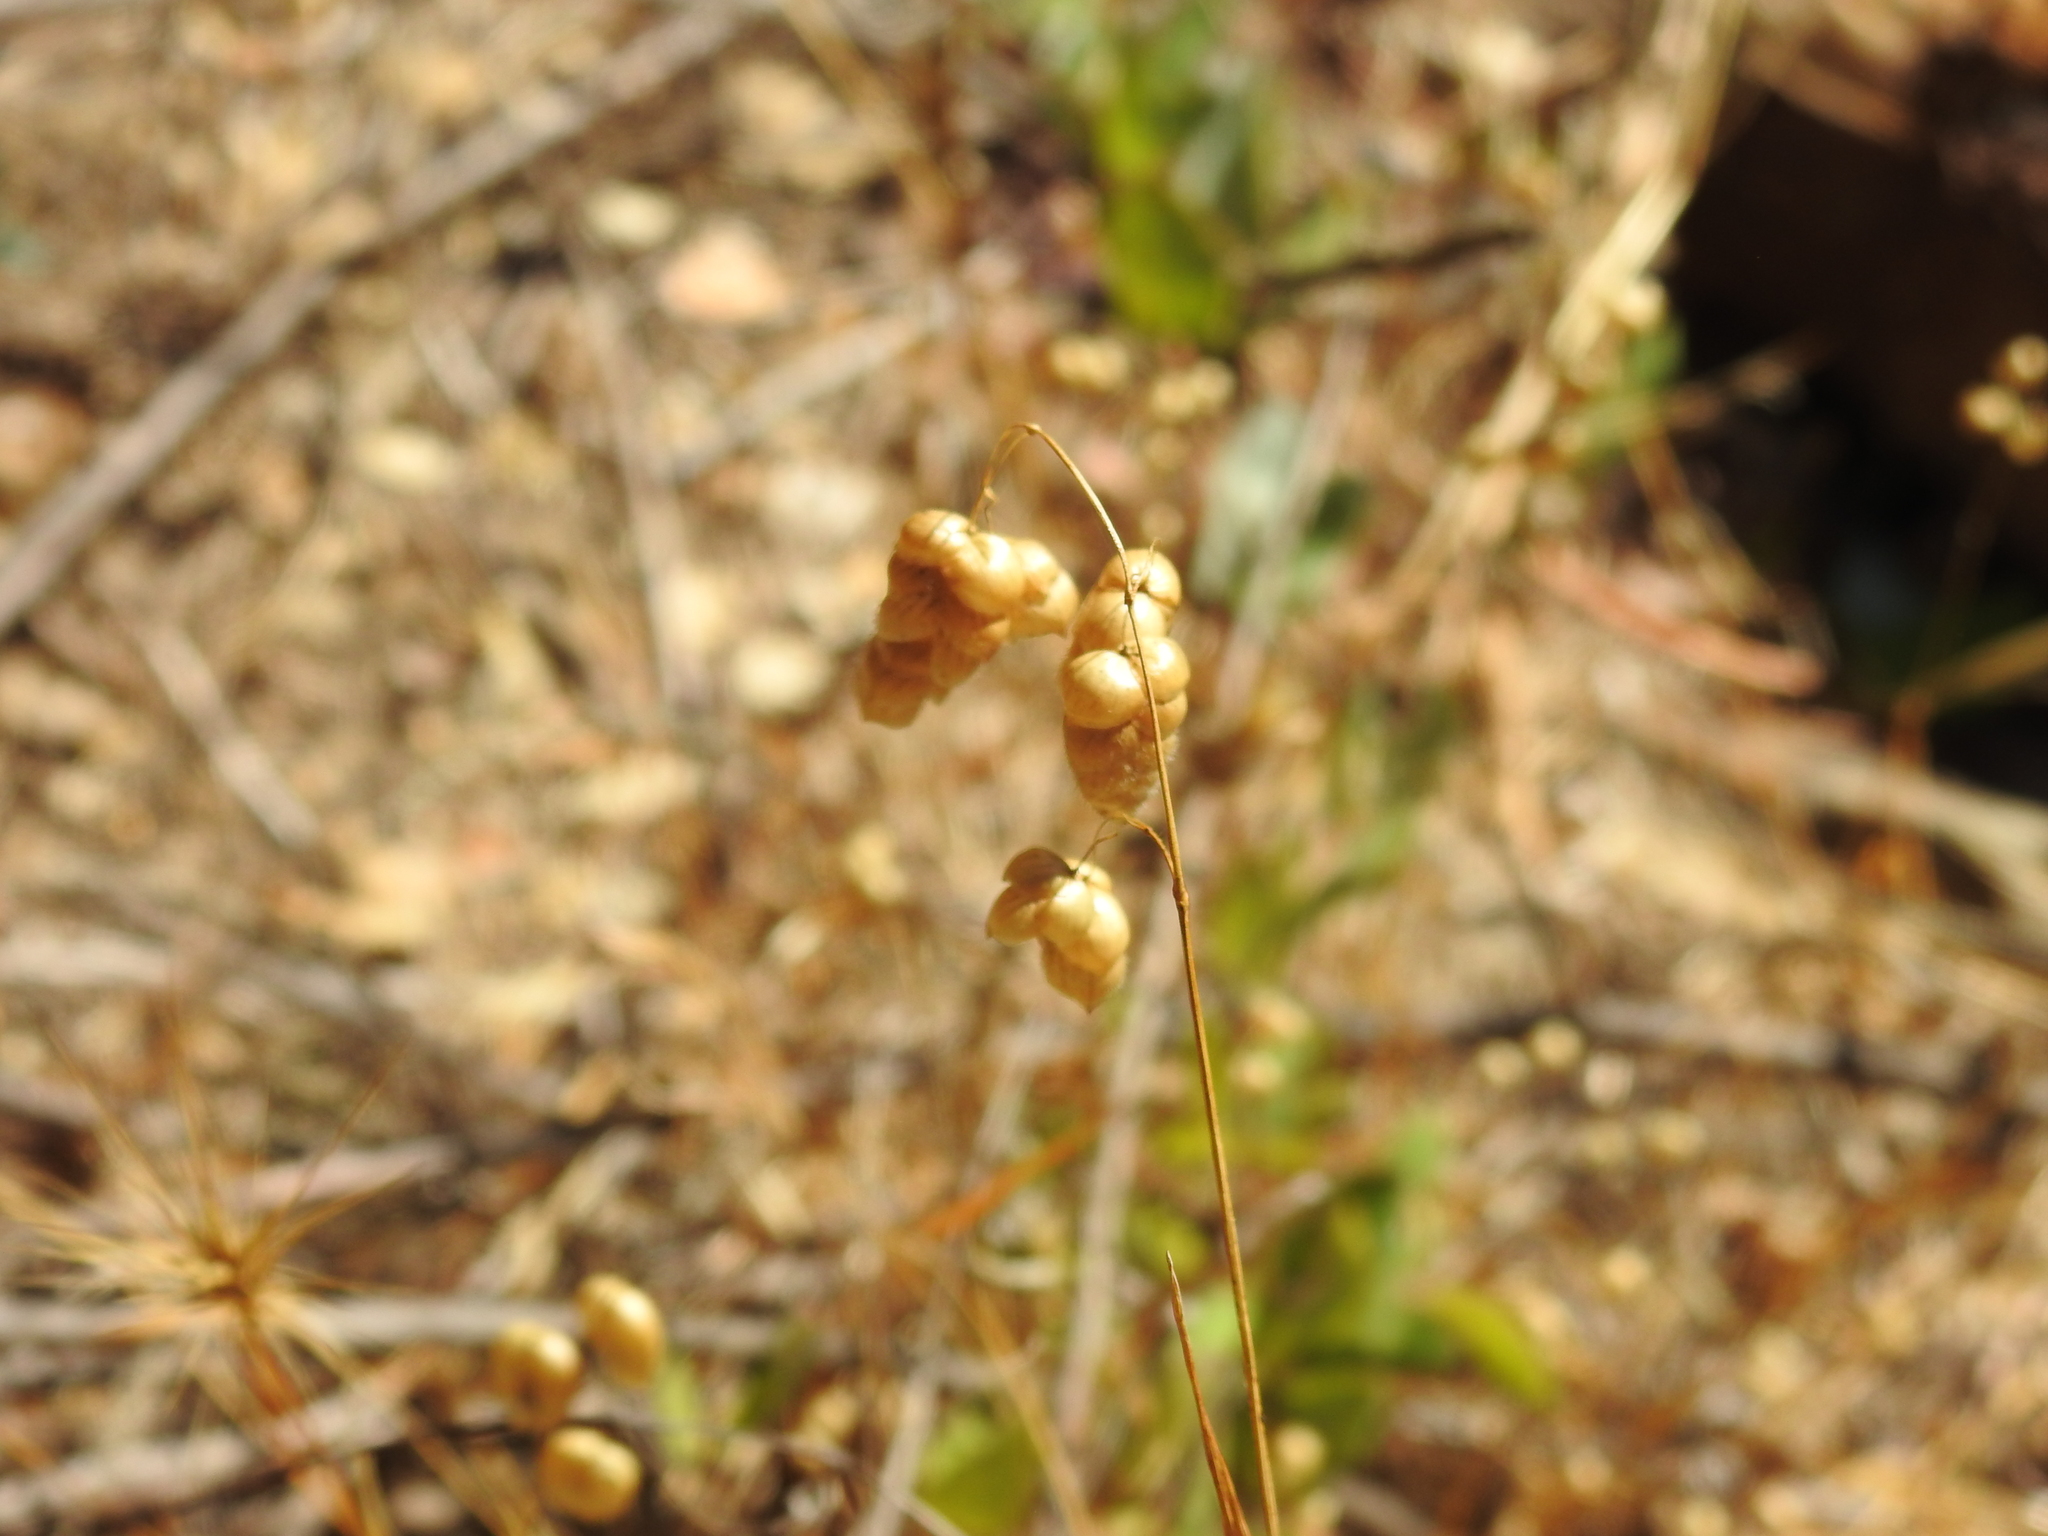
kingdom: Plantae
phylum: Tracheophyta
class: Liliopsida
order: Poales
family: Poaceae
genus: Briza
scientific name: Briza maxima
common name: Big quakinggrass
